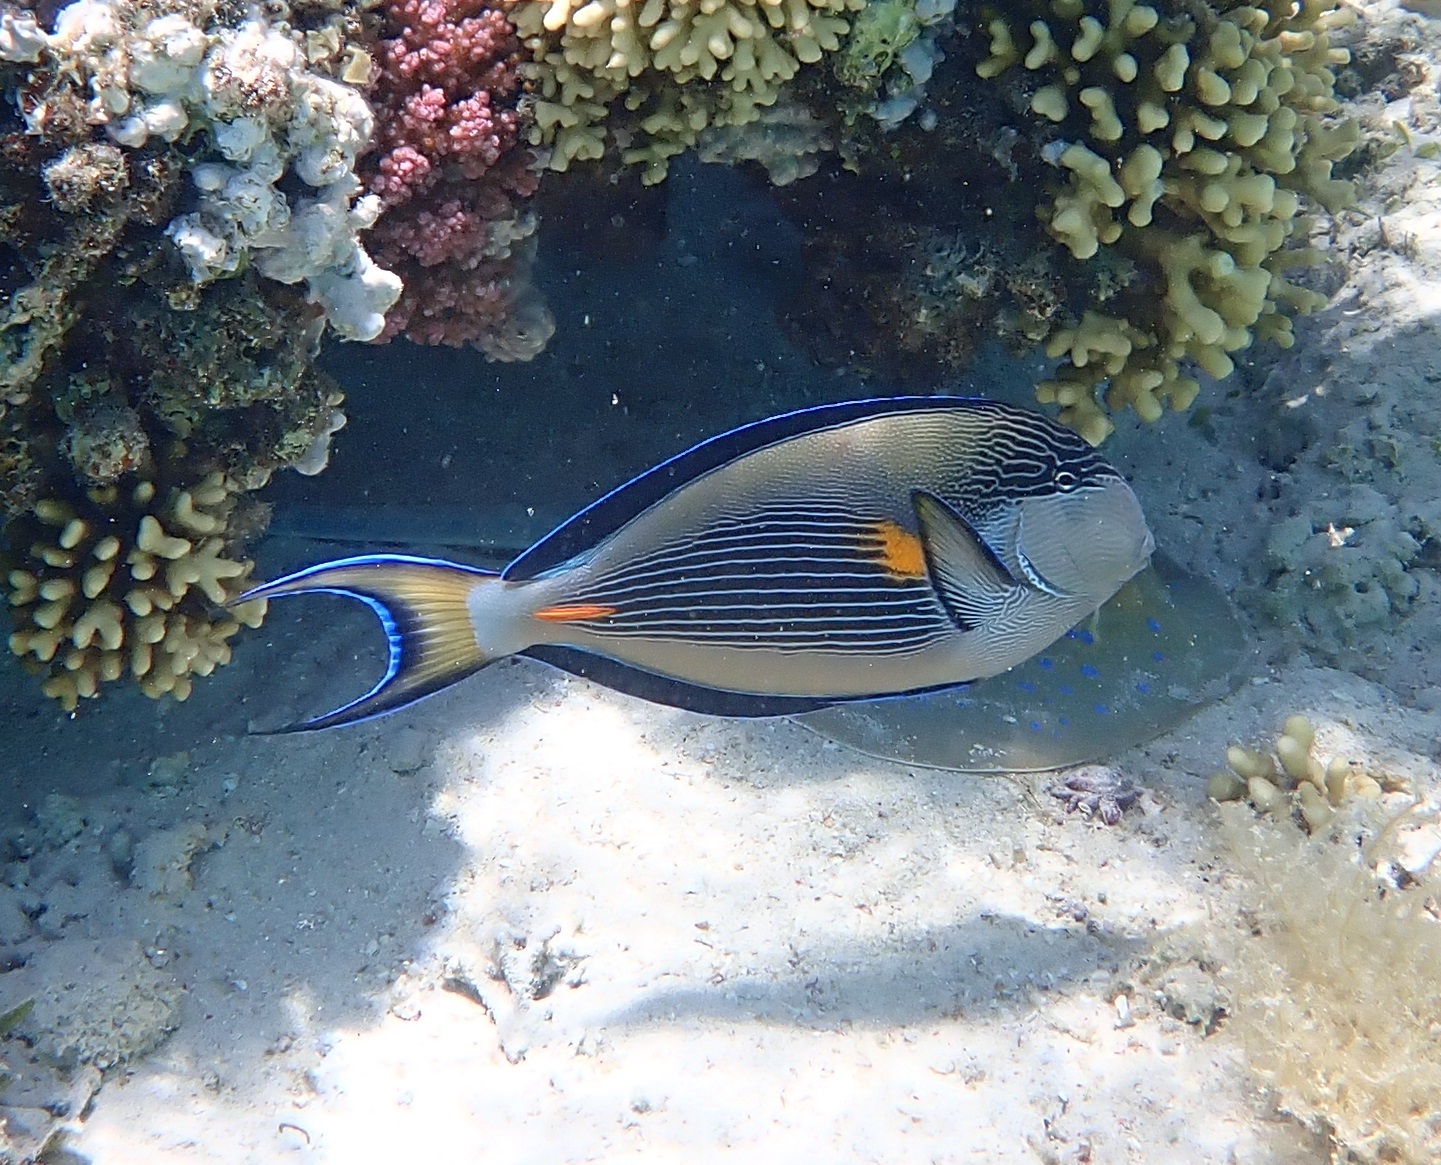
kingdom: Animalia
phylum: Chordata
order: Perciformes
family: Acanthuridae
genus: Acanthurus
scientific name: Acanthurus sohal
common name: Red sea surgeonfish
